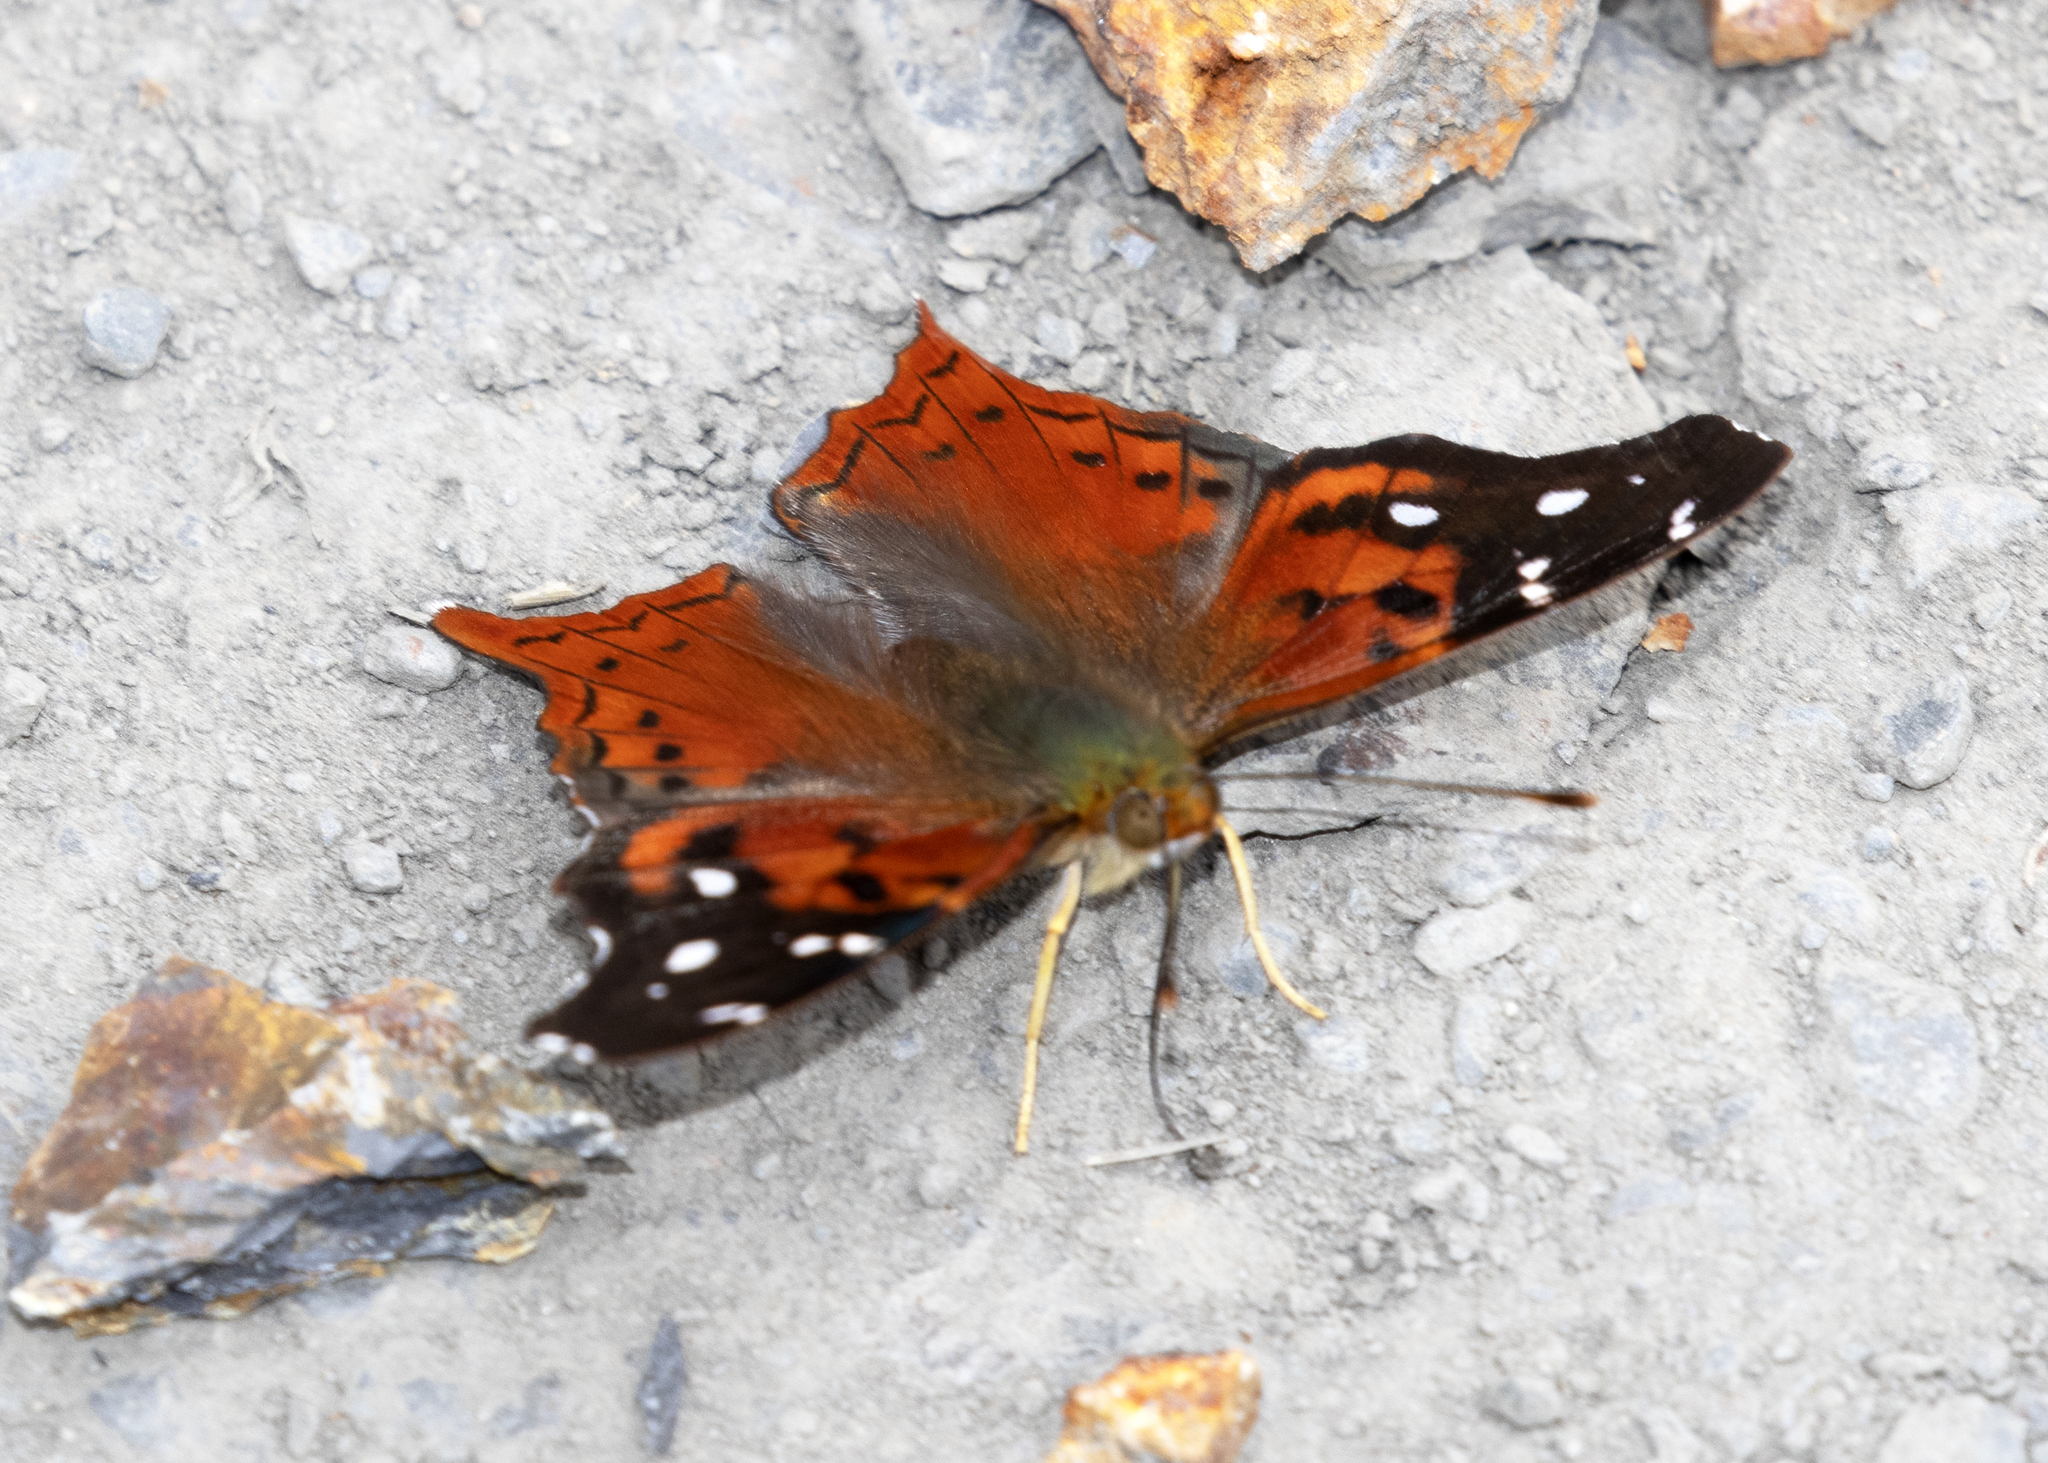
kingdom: Animalia
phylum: Arthropoda
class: Insecta
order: Lepidoptera
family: Nymphalidae
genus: Hypanartia
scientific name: Hypanartia cinderella
